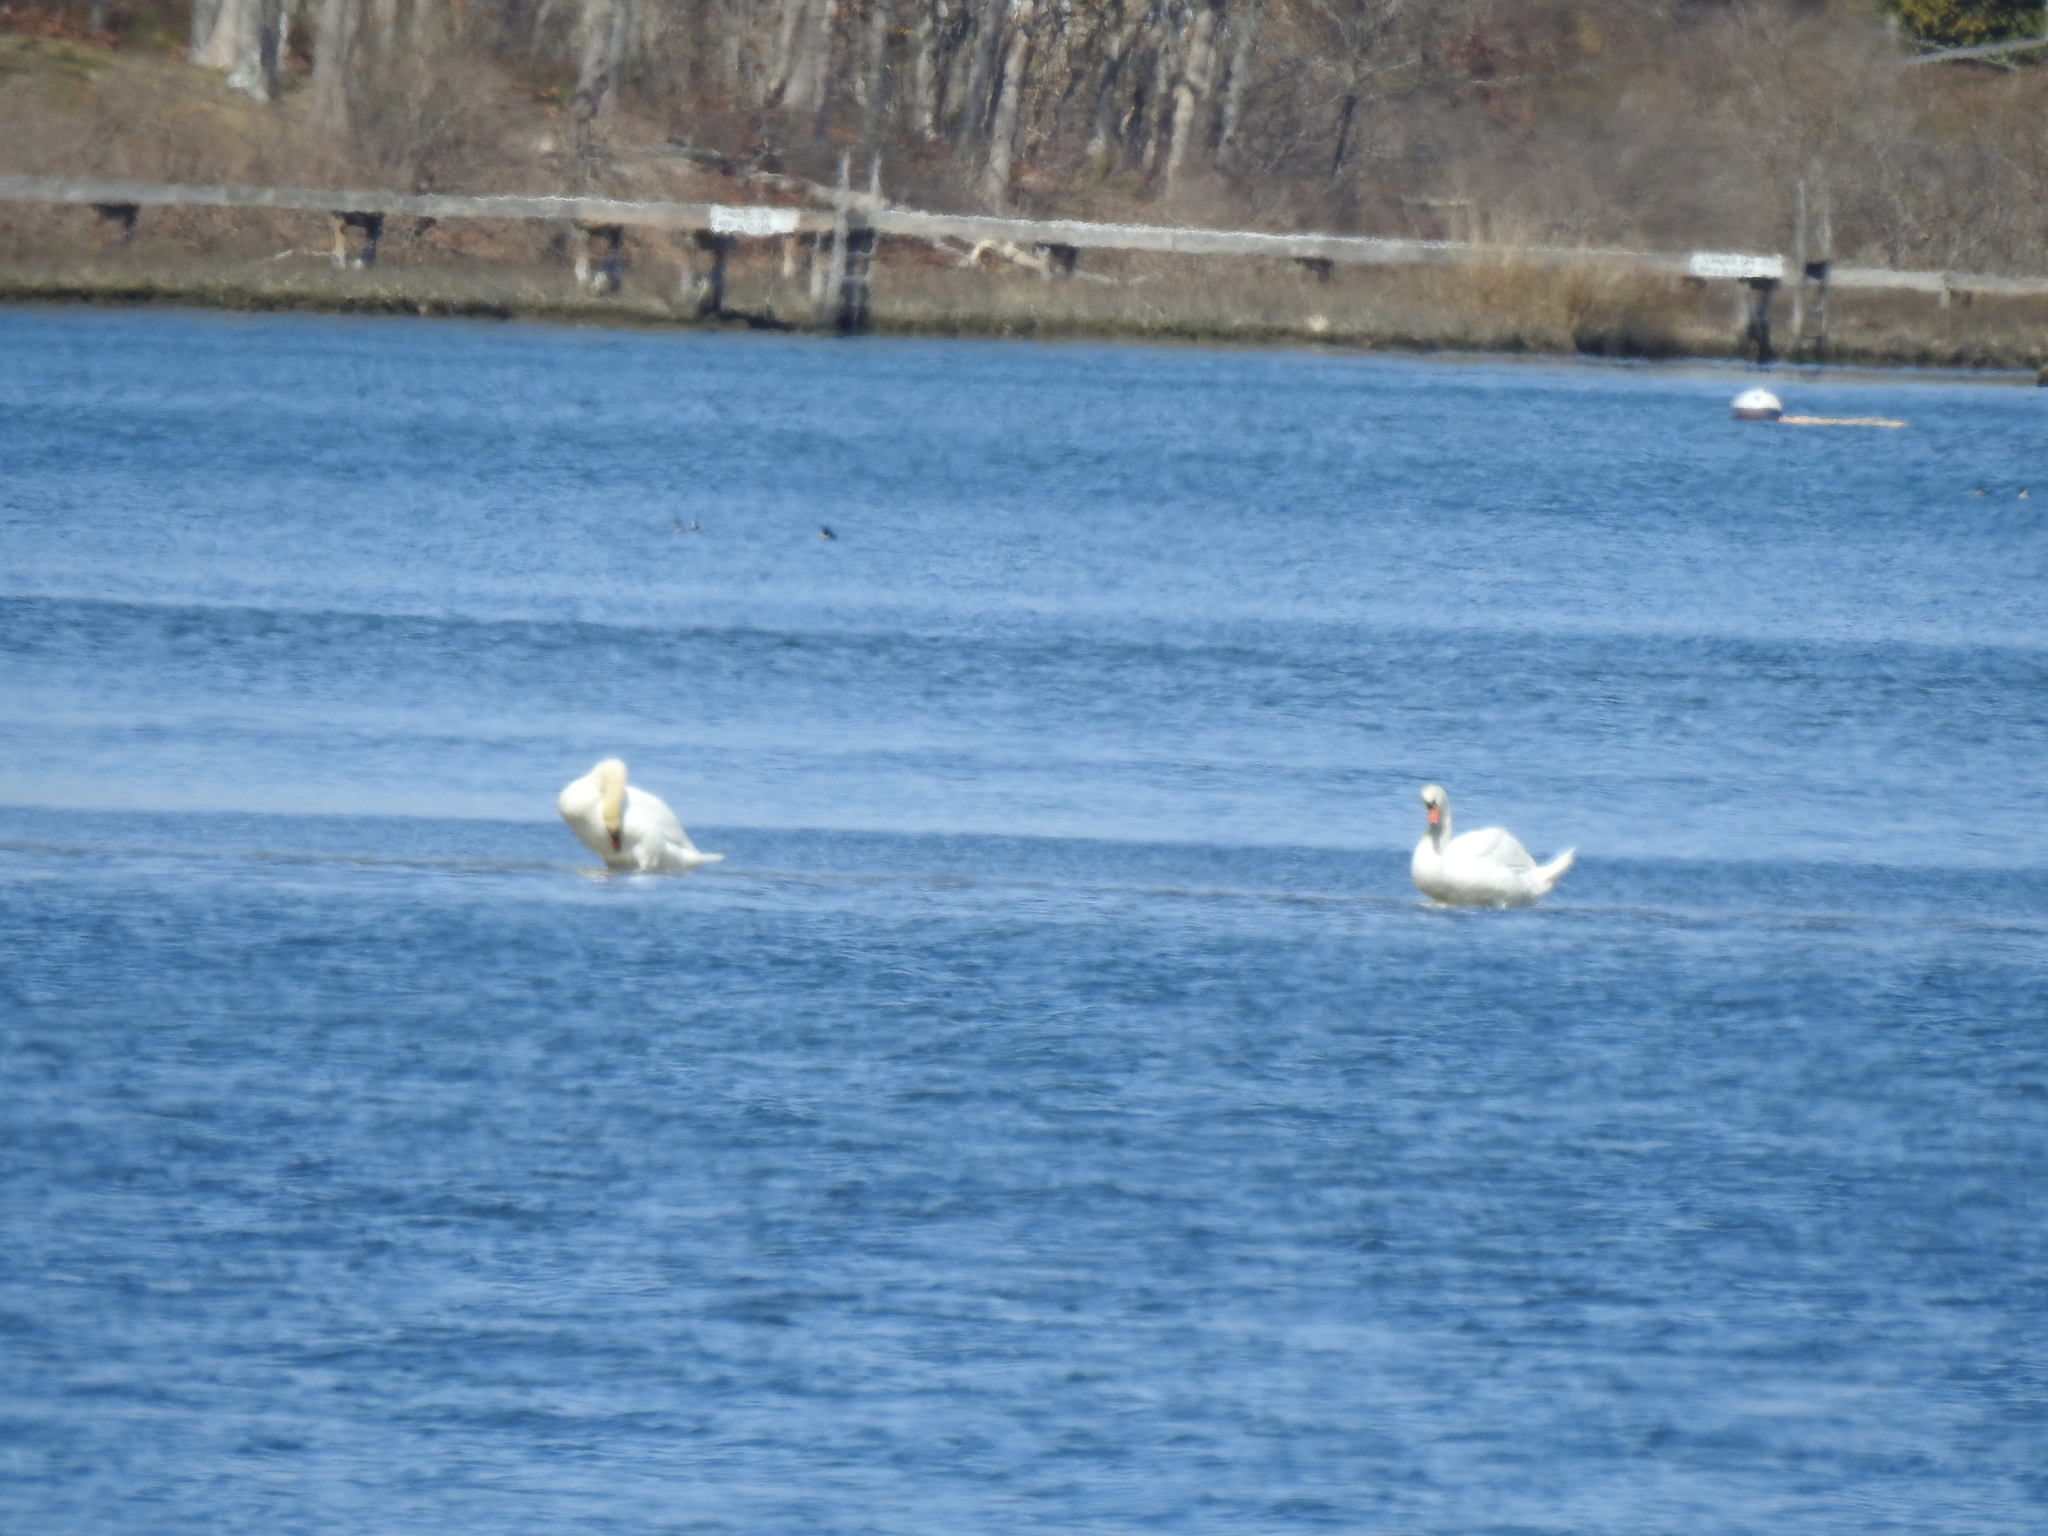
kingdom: Animalia
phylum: Chordata
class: Aves
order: Anseriformes
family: Anatidae
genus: Cygnus
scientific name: Cygnus olor
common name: Mute swan
